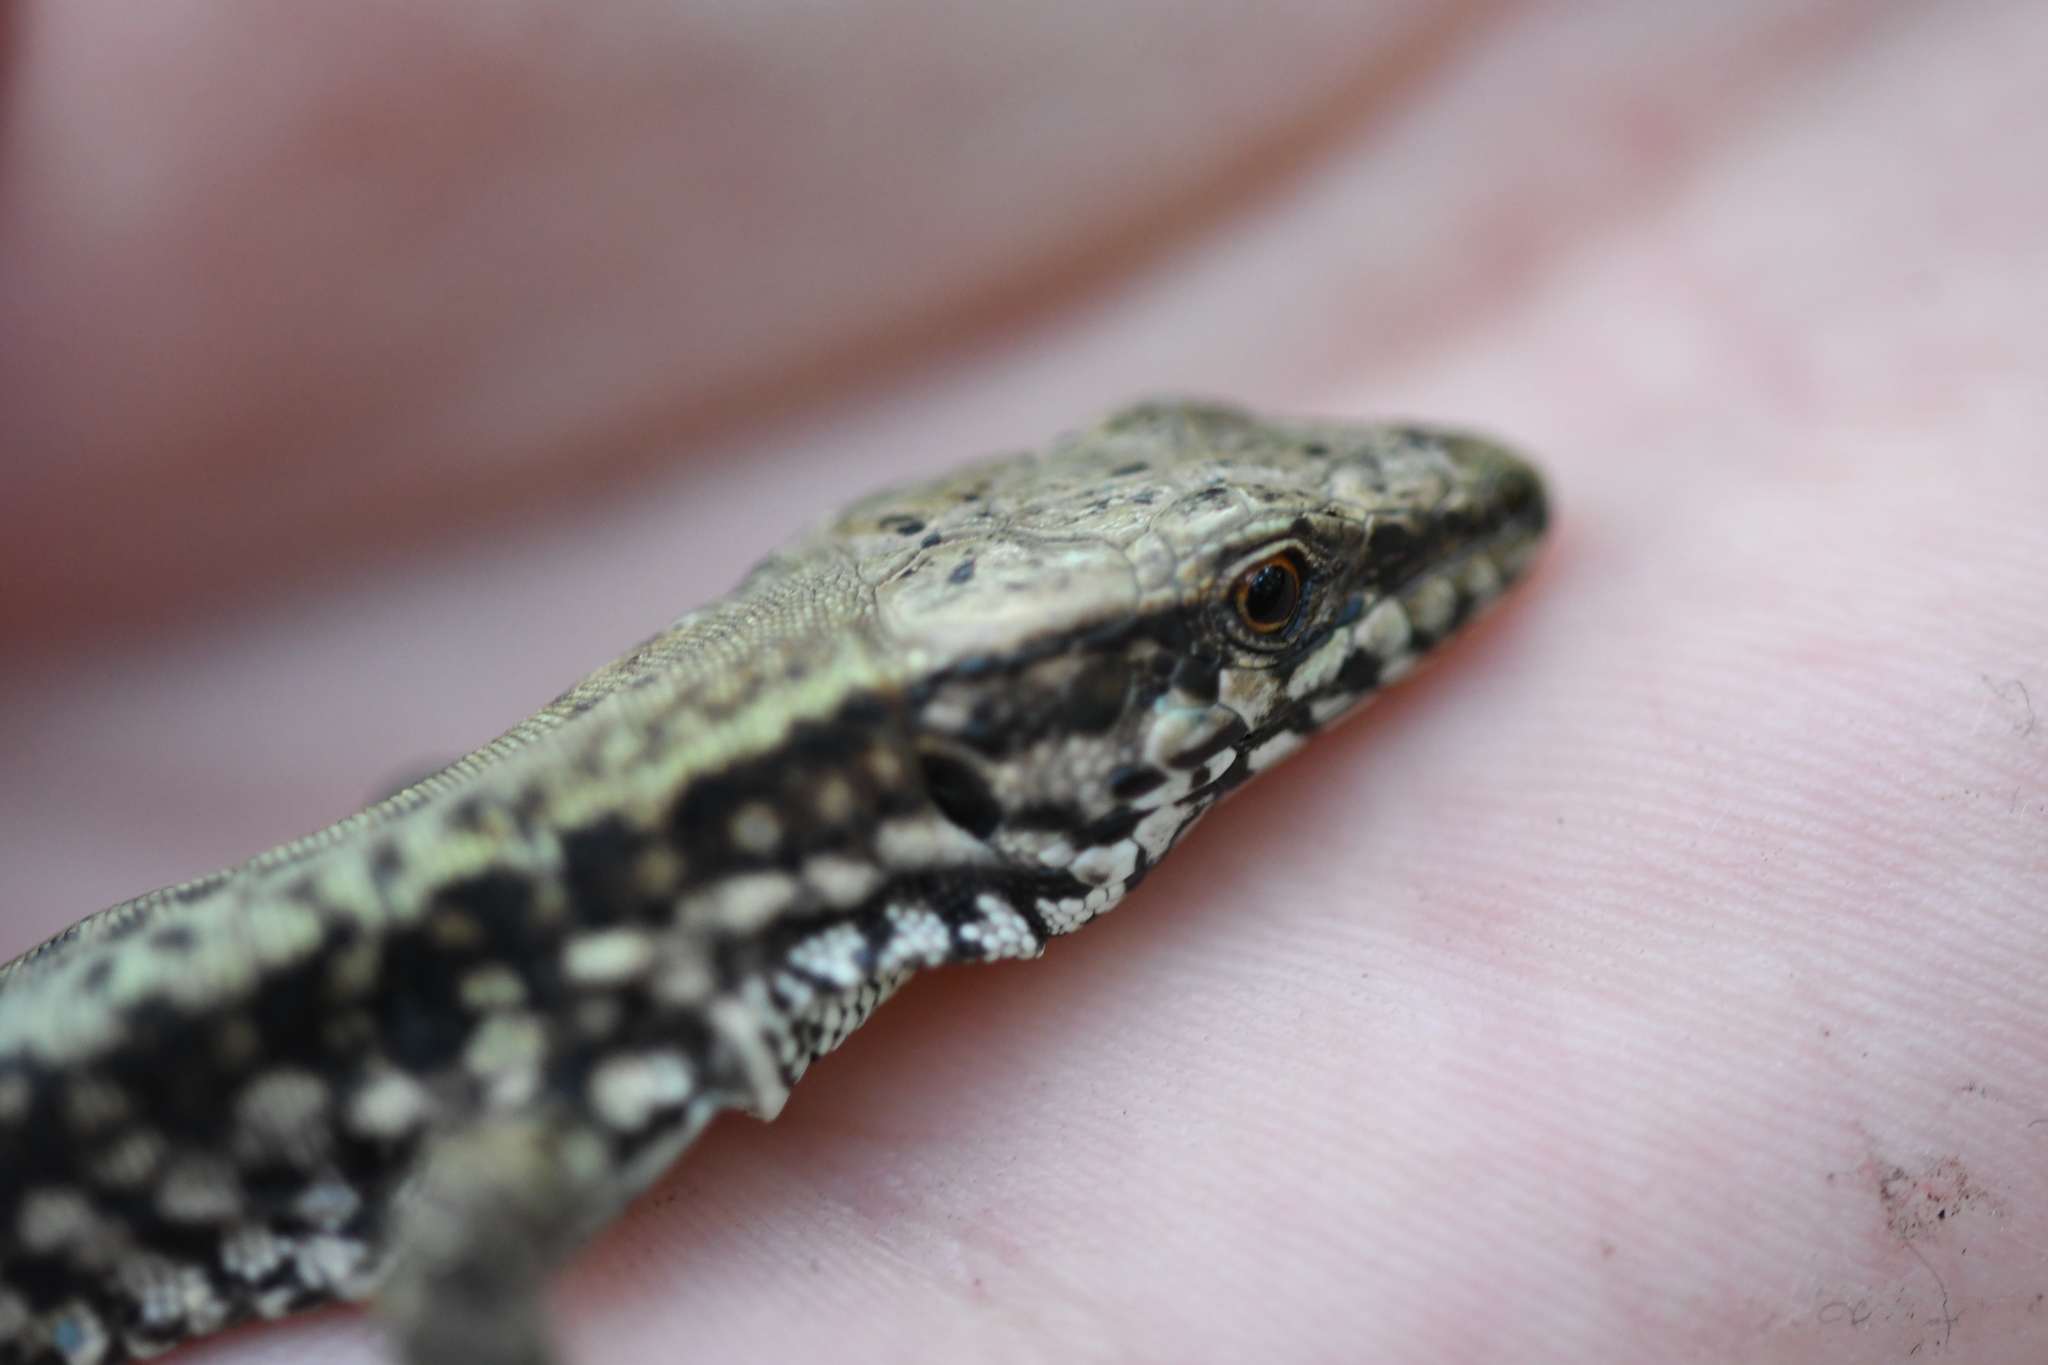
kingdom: Animalia
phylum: Chordata
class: Squamata
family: Lacertidae
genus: Podarcis
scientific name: Podarcis muralis
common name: Common wall lizard
